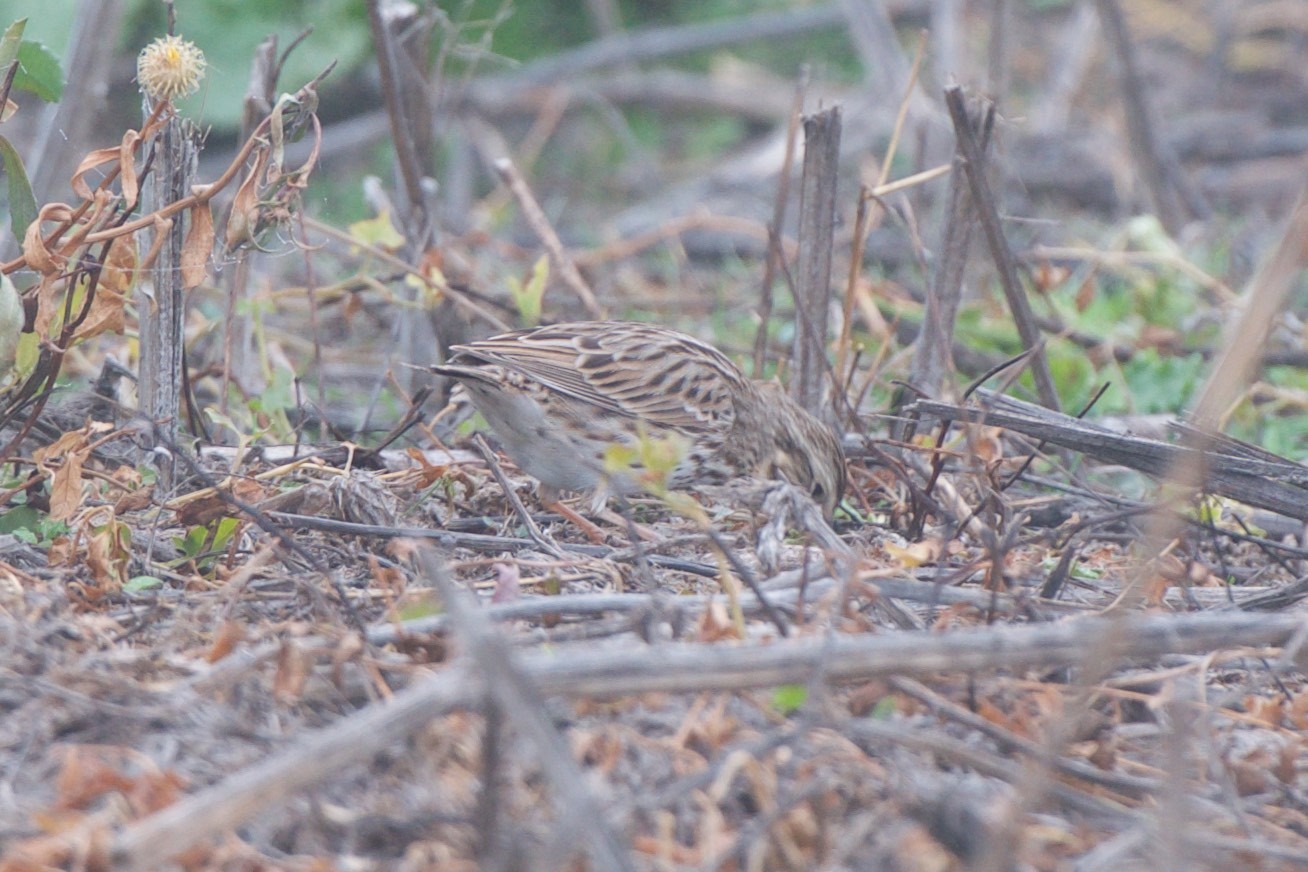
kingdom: Animalia
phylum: Chordata
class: Aves
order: Passeriformes
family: Passerellidae
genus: Passerculus
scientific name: Passerculus sandwichensis
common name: Savannah sparrow
